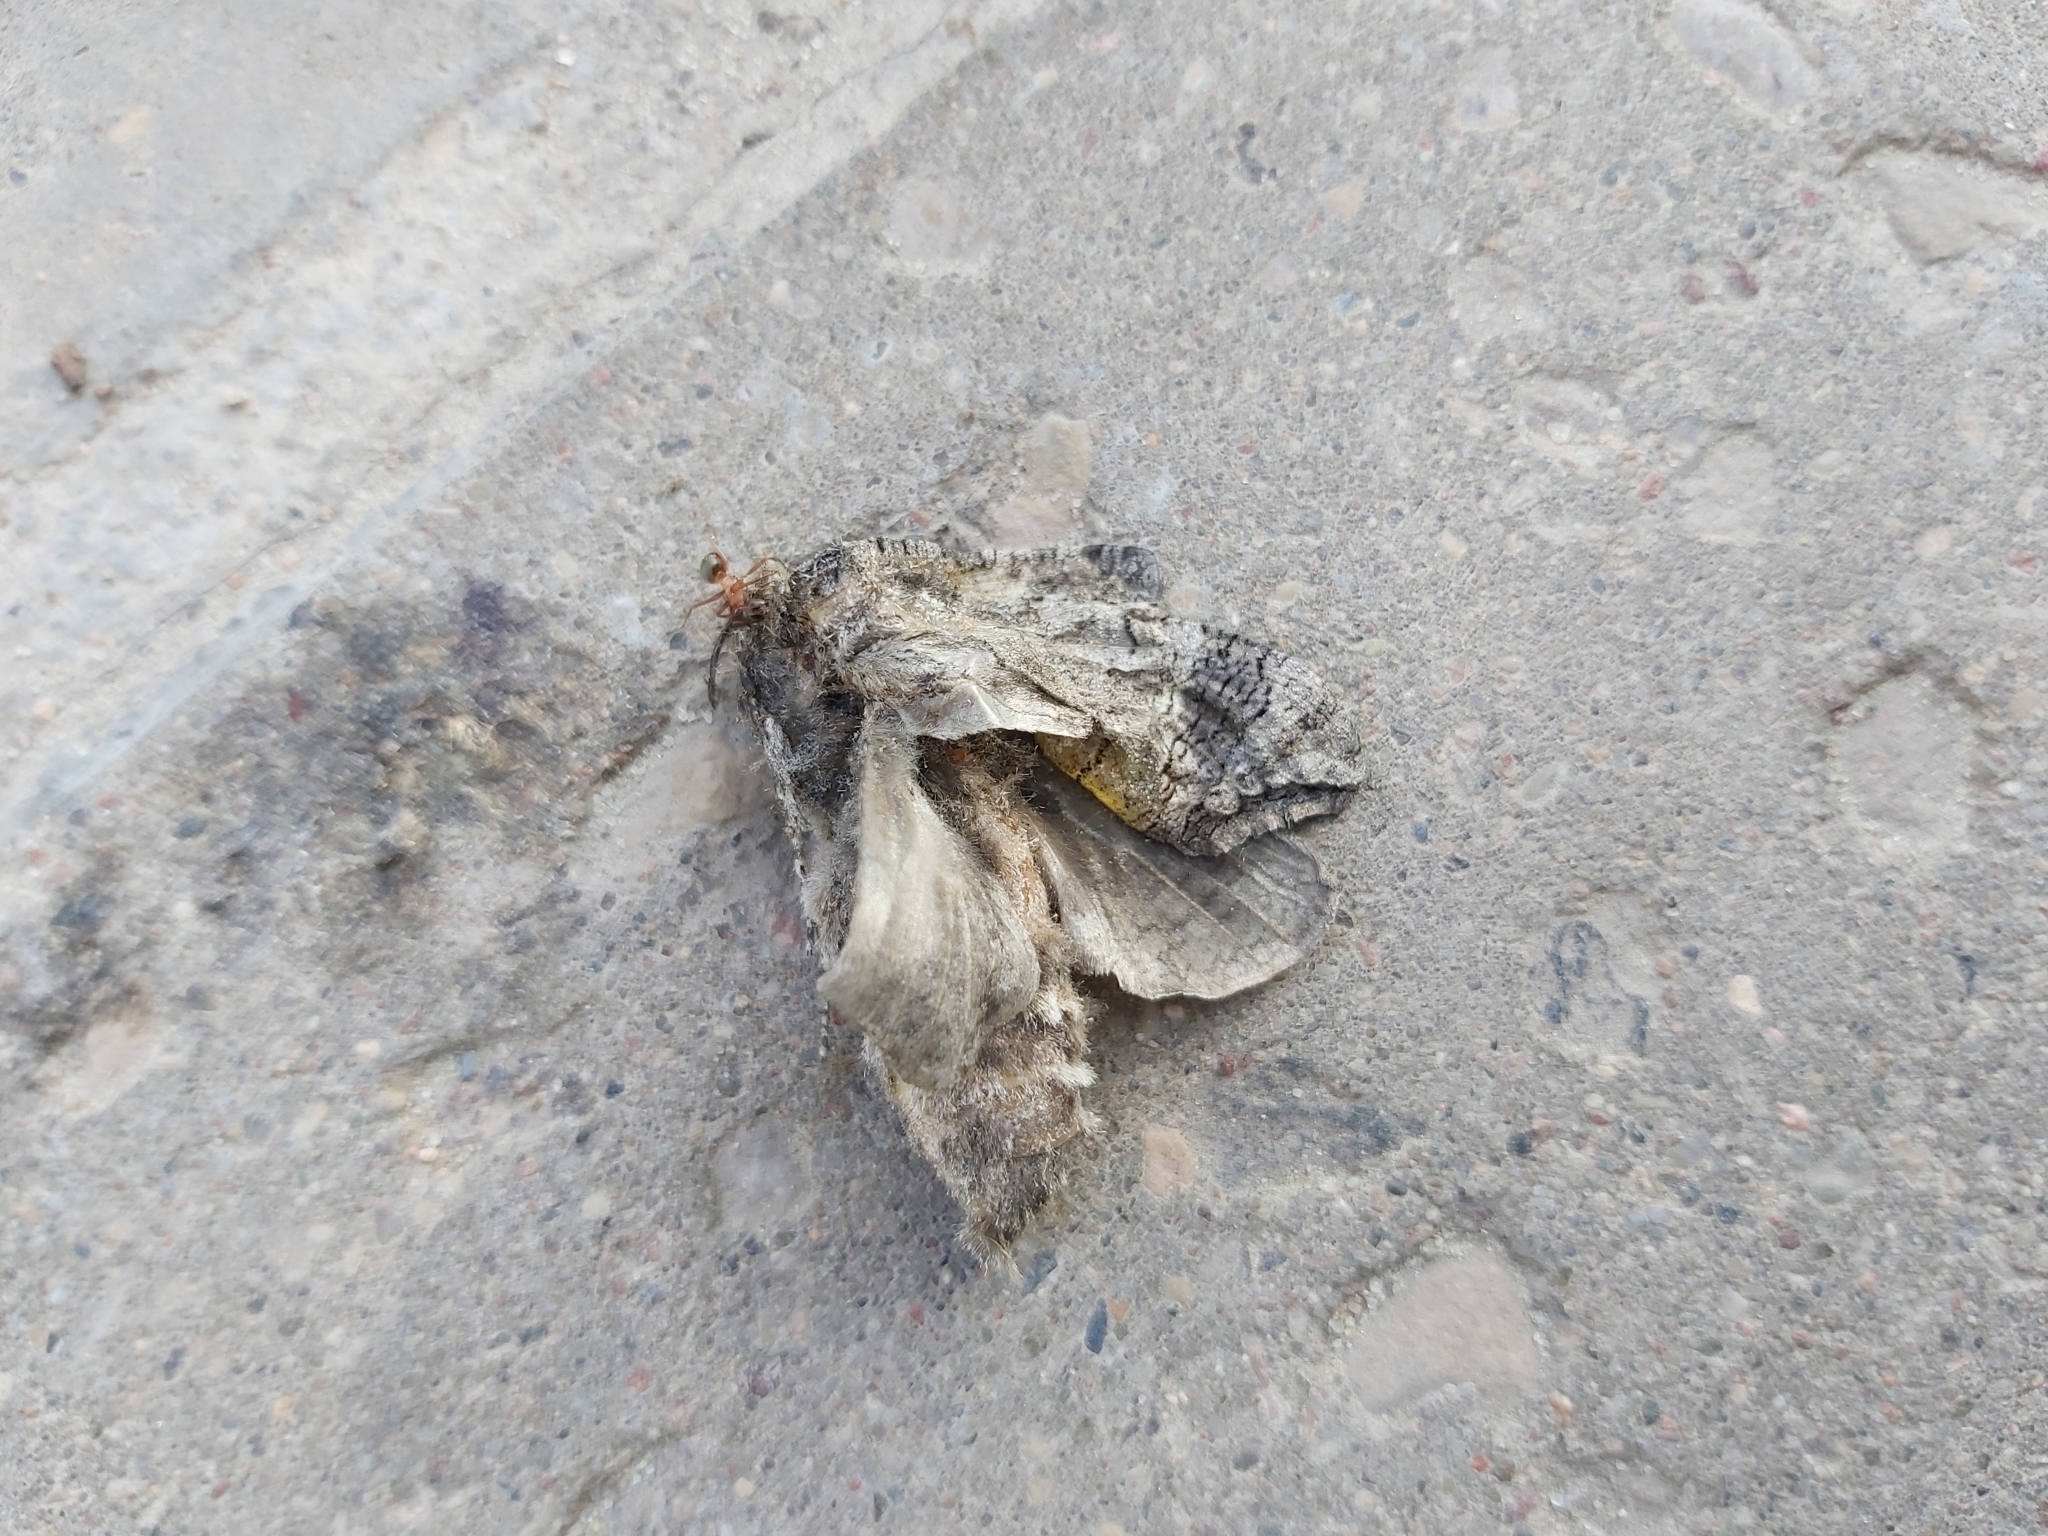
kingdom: Animalia
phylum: Arthropoda
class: Insecta
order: Lepidoptera
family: Cossidae
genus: Cossus
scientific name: Cossus cossus
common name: Goat moth
